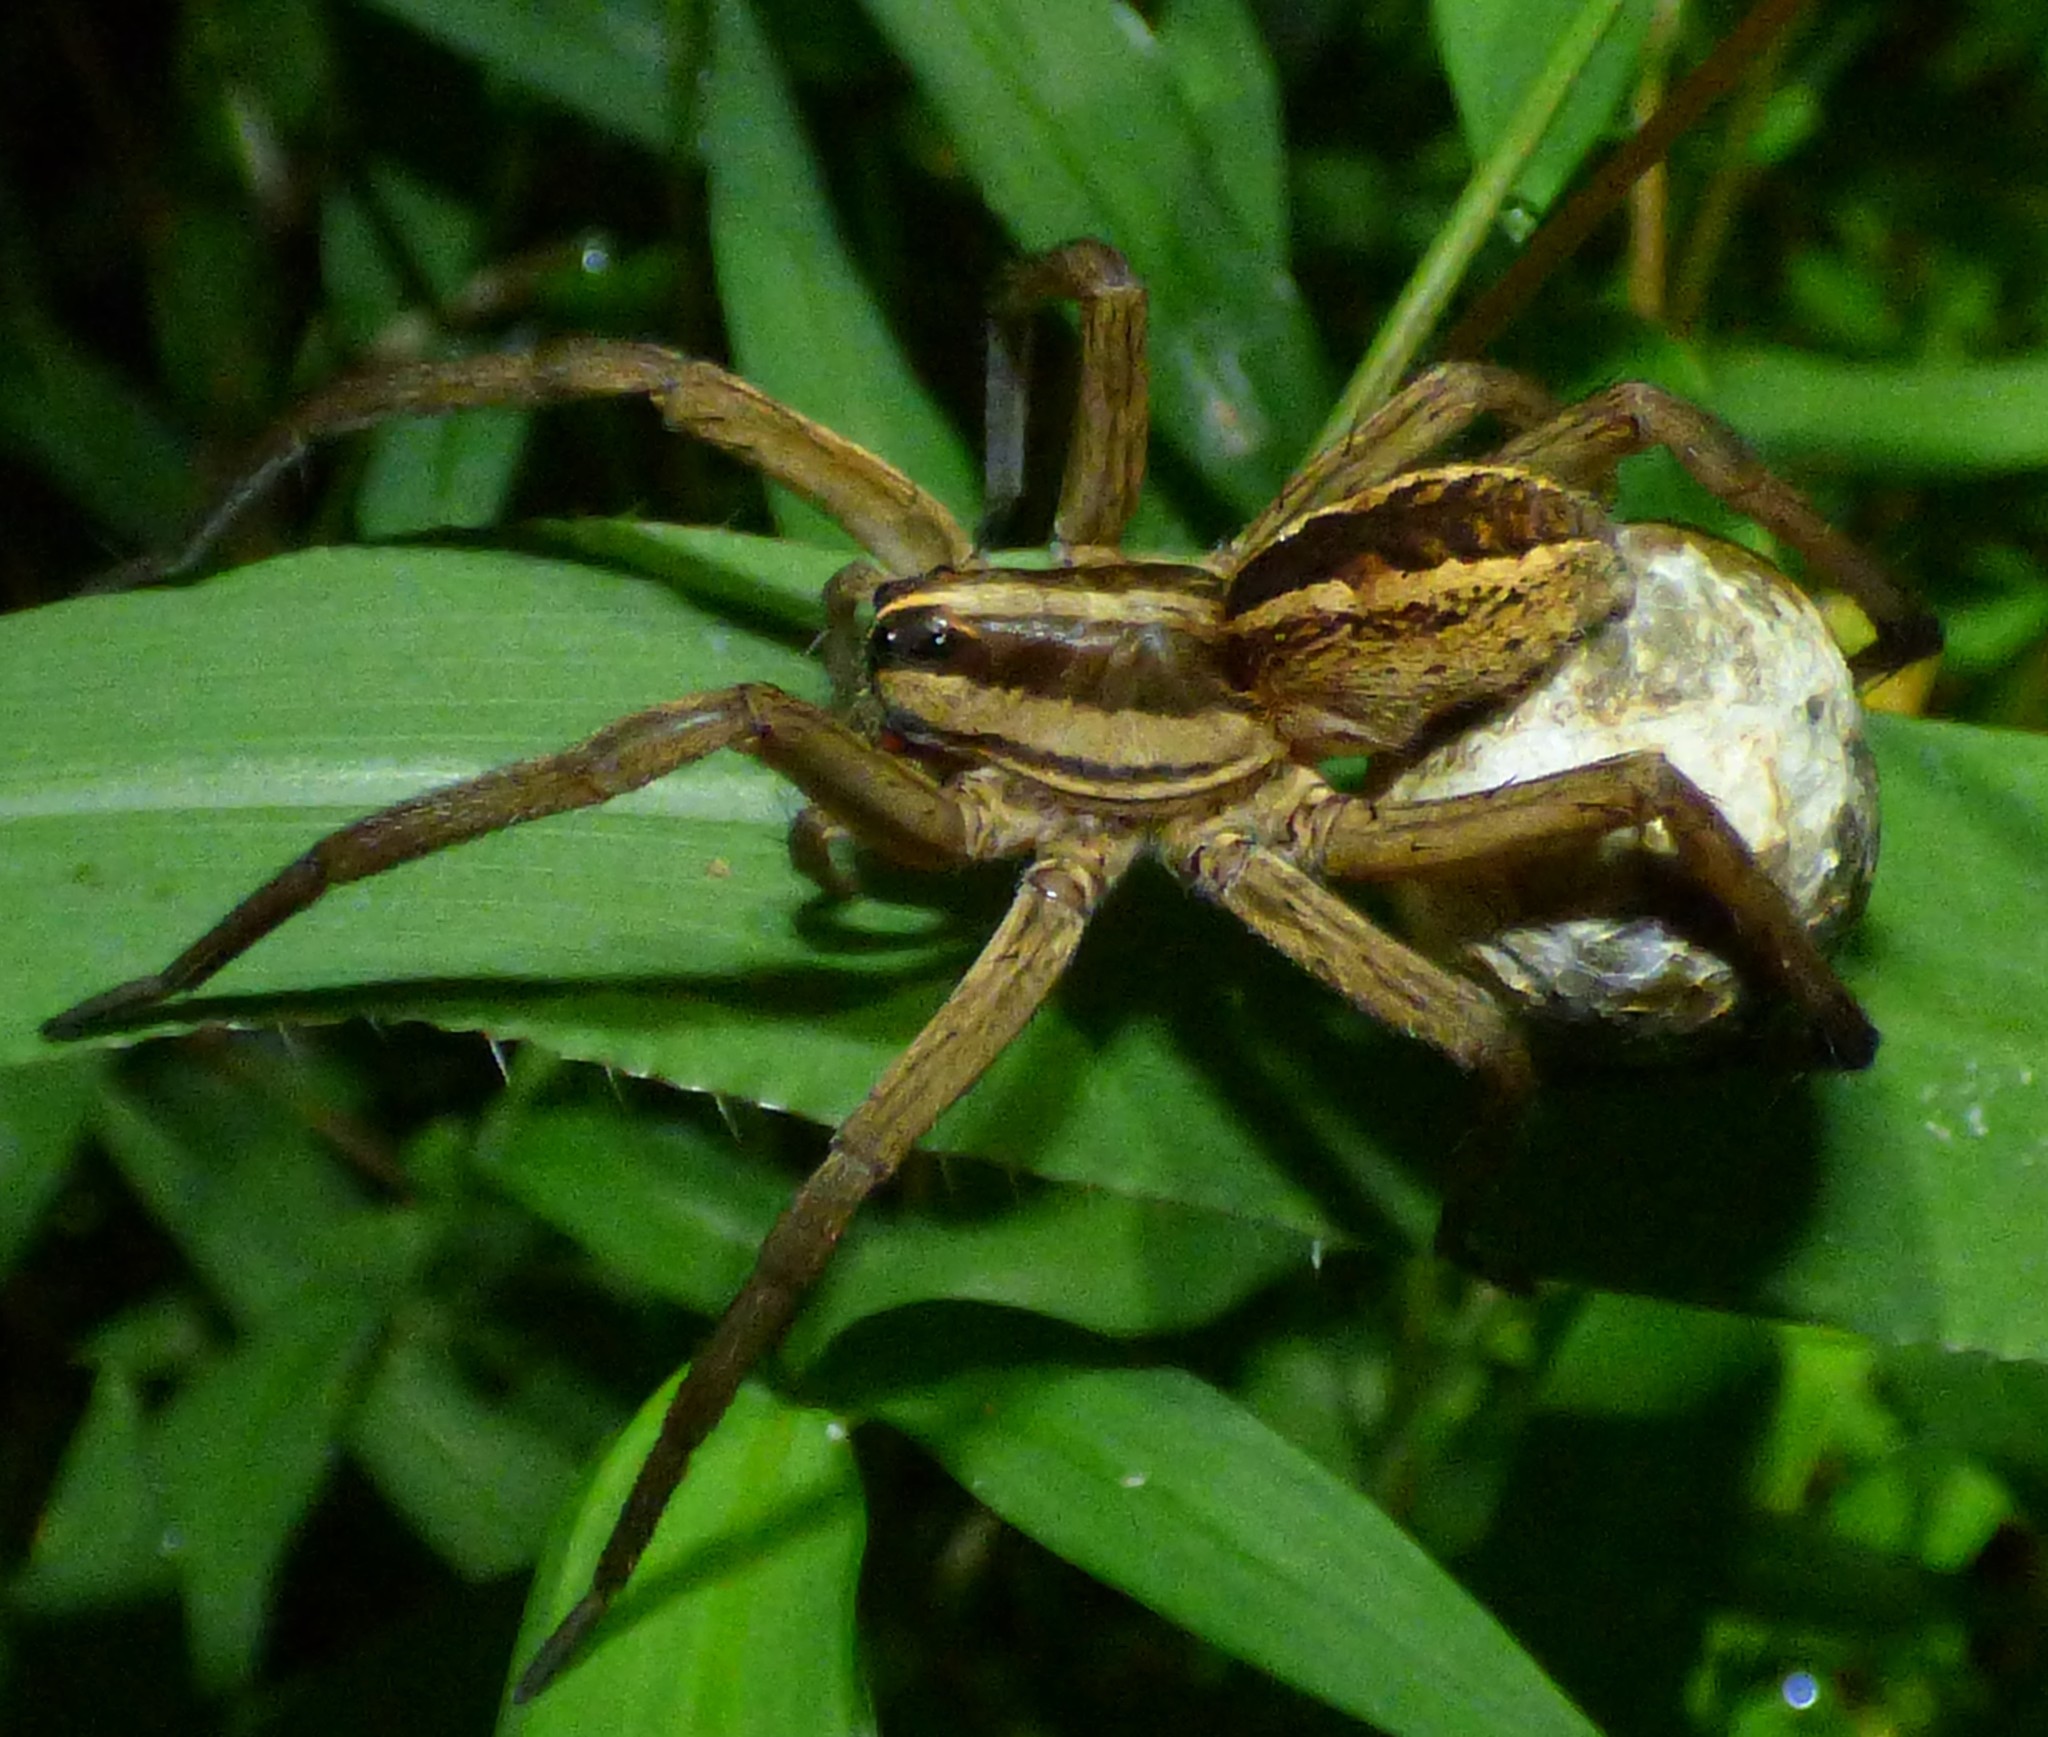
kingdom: Animalia
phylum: Arthropoda
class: Arachnida
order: Araneae
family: Lycosidae
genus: Rabidosa
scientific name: Rabidosa rabida
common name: Rabid wolf spider
